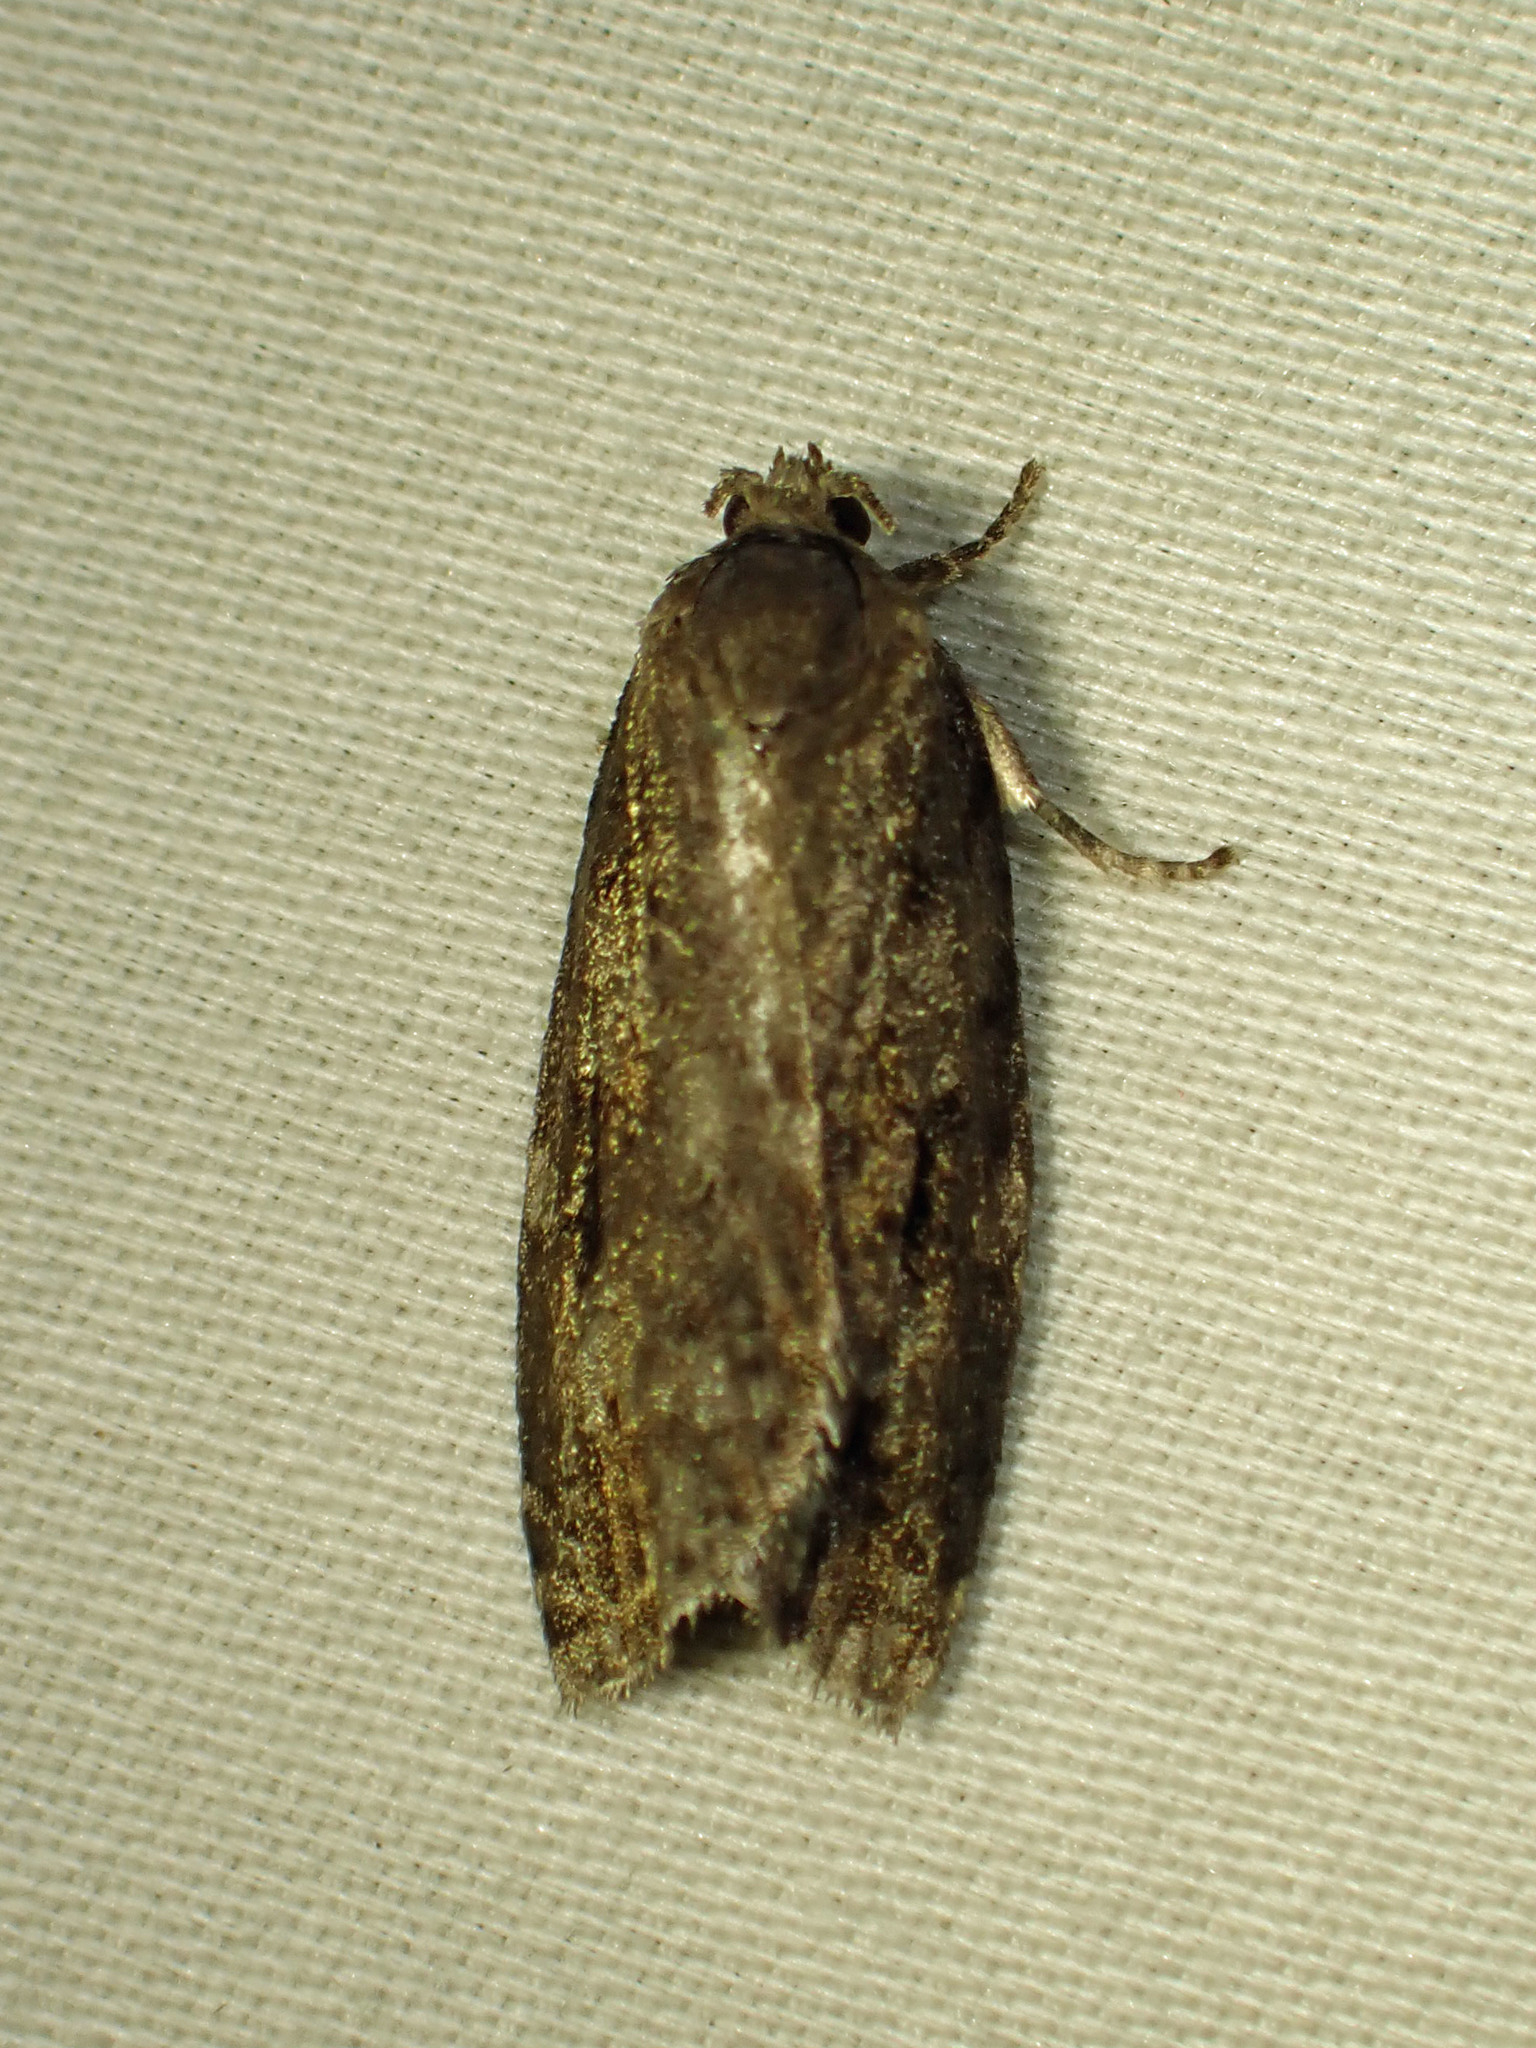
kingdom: Animalia
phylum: Arthropoda
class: Insecta
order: Lepidoptera
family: Tortricidae
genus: Choristoneura
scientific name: Choristoneura fumiferana
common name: Spruce budworm
